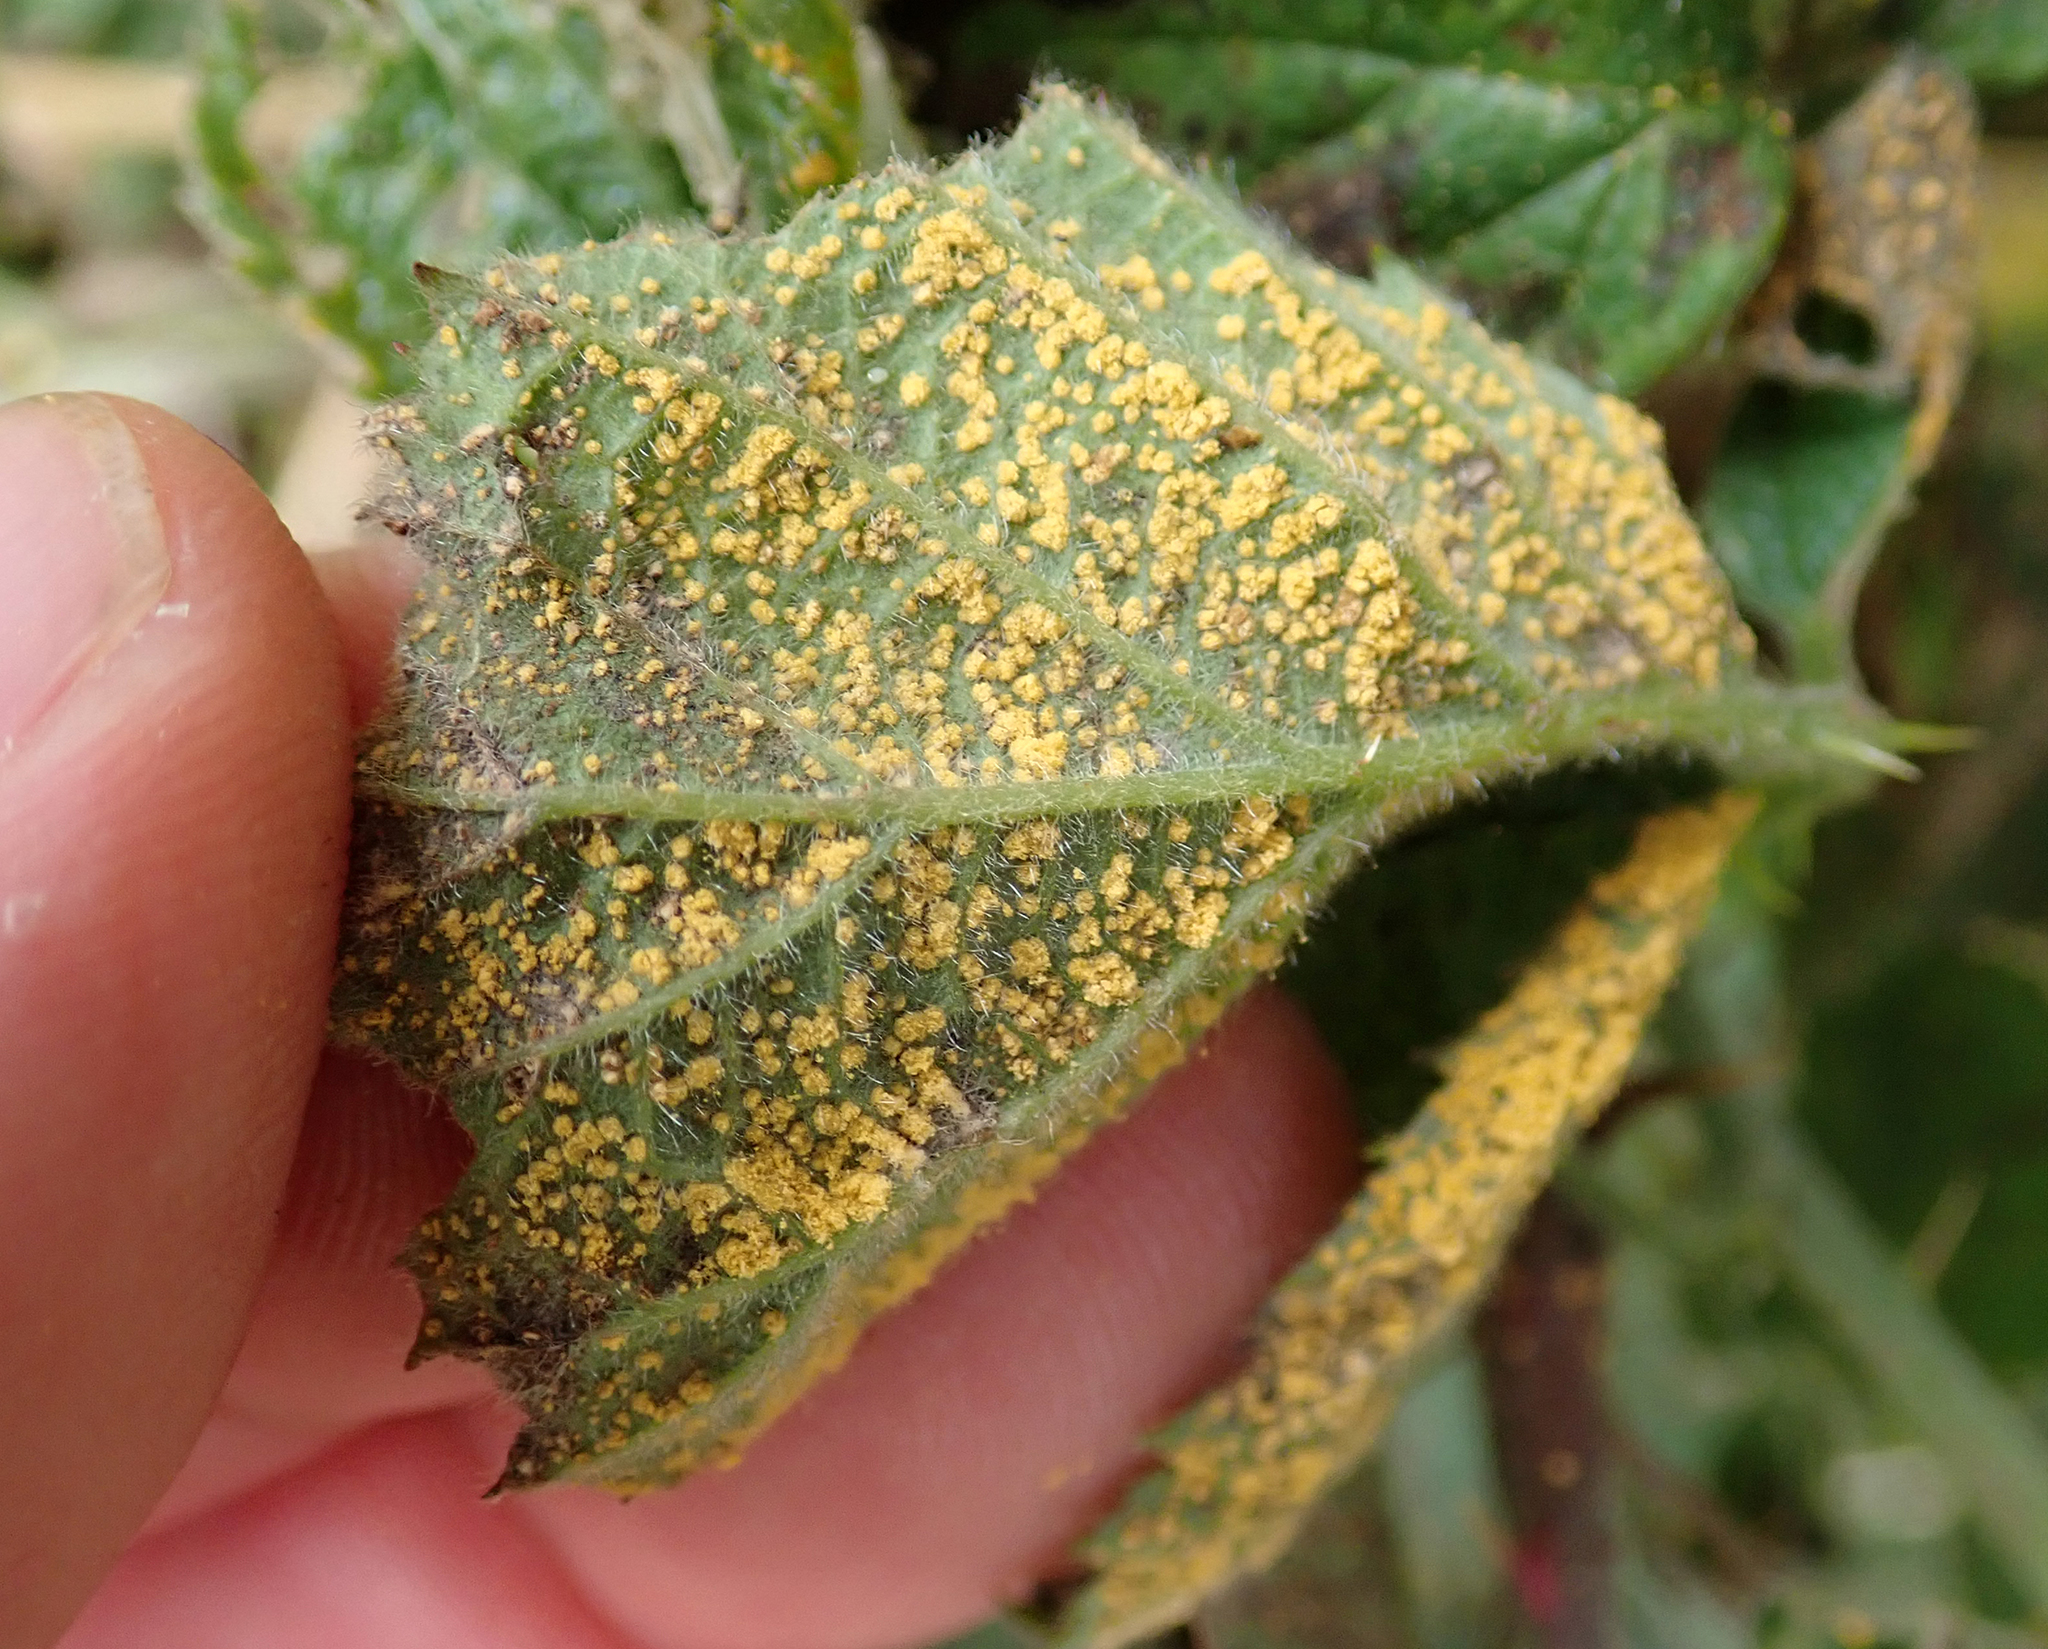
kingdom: Fungi
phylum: Basidiomycota
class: Pucciniomycetes
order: Pucciniales
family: Phragmidiaceae
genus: Phragmidium
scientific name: Phragmidium violaceum
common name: Violet bramble rust
